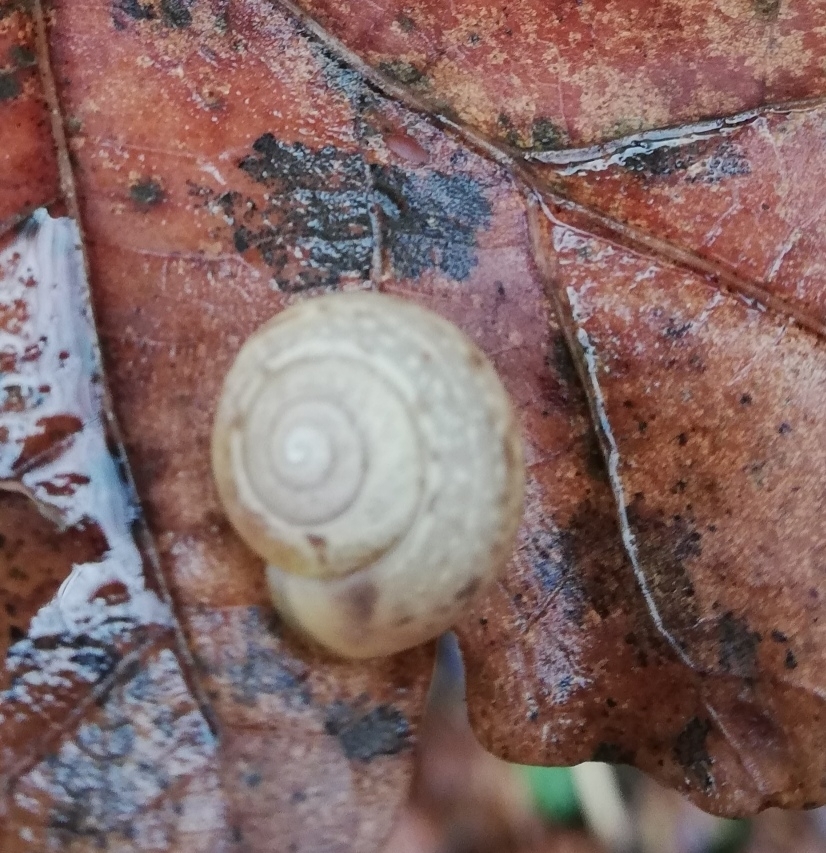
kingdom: Animalia
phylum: Mollusca
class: Gastropoda
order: Stylommatophora
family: Camaenidae
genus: Fruticicola
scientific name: Fruticicola fruticum
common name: Bush snail
